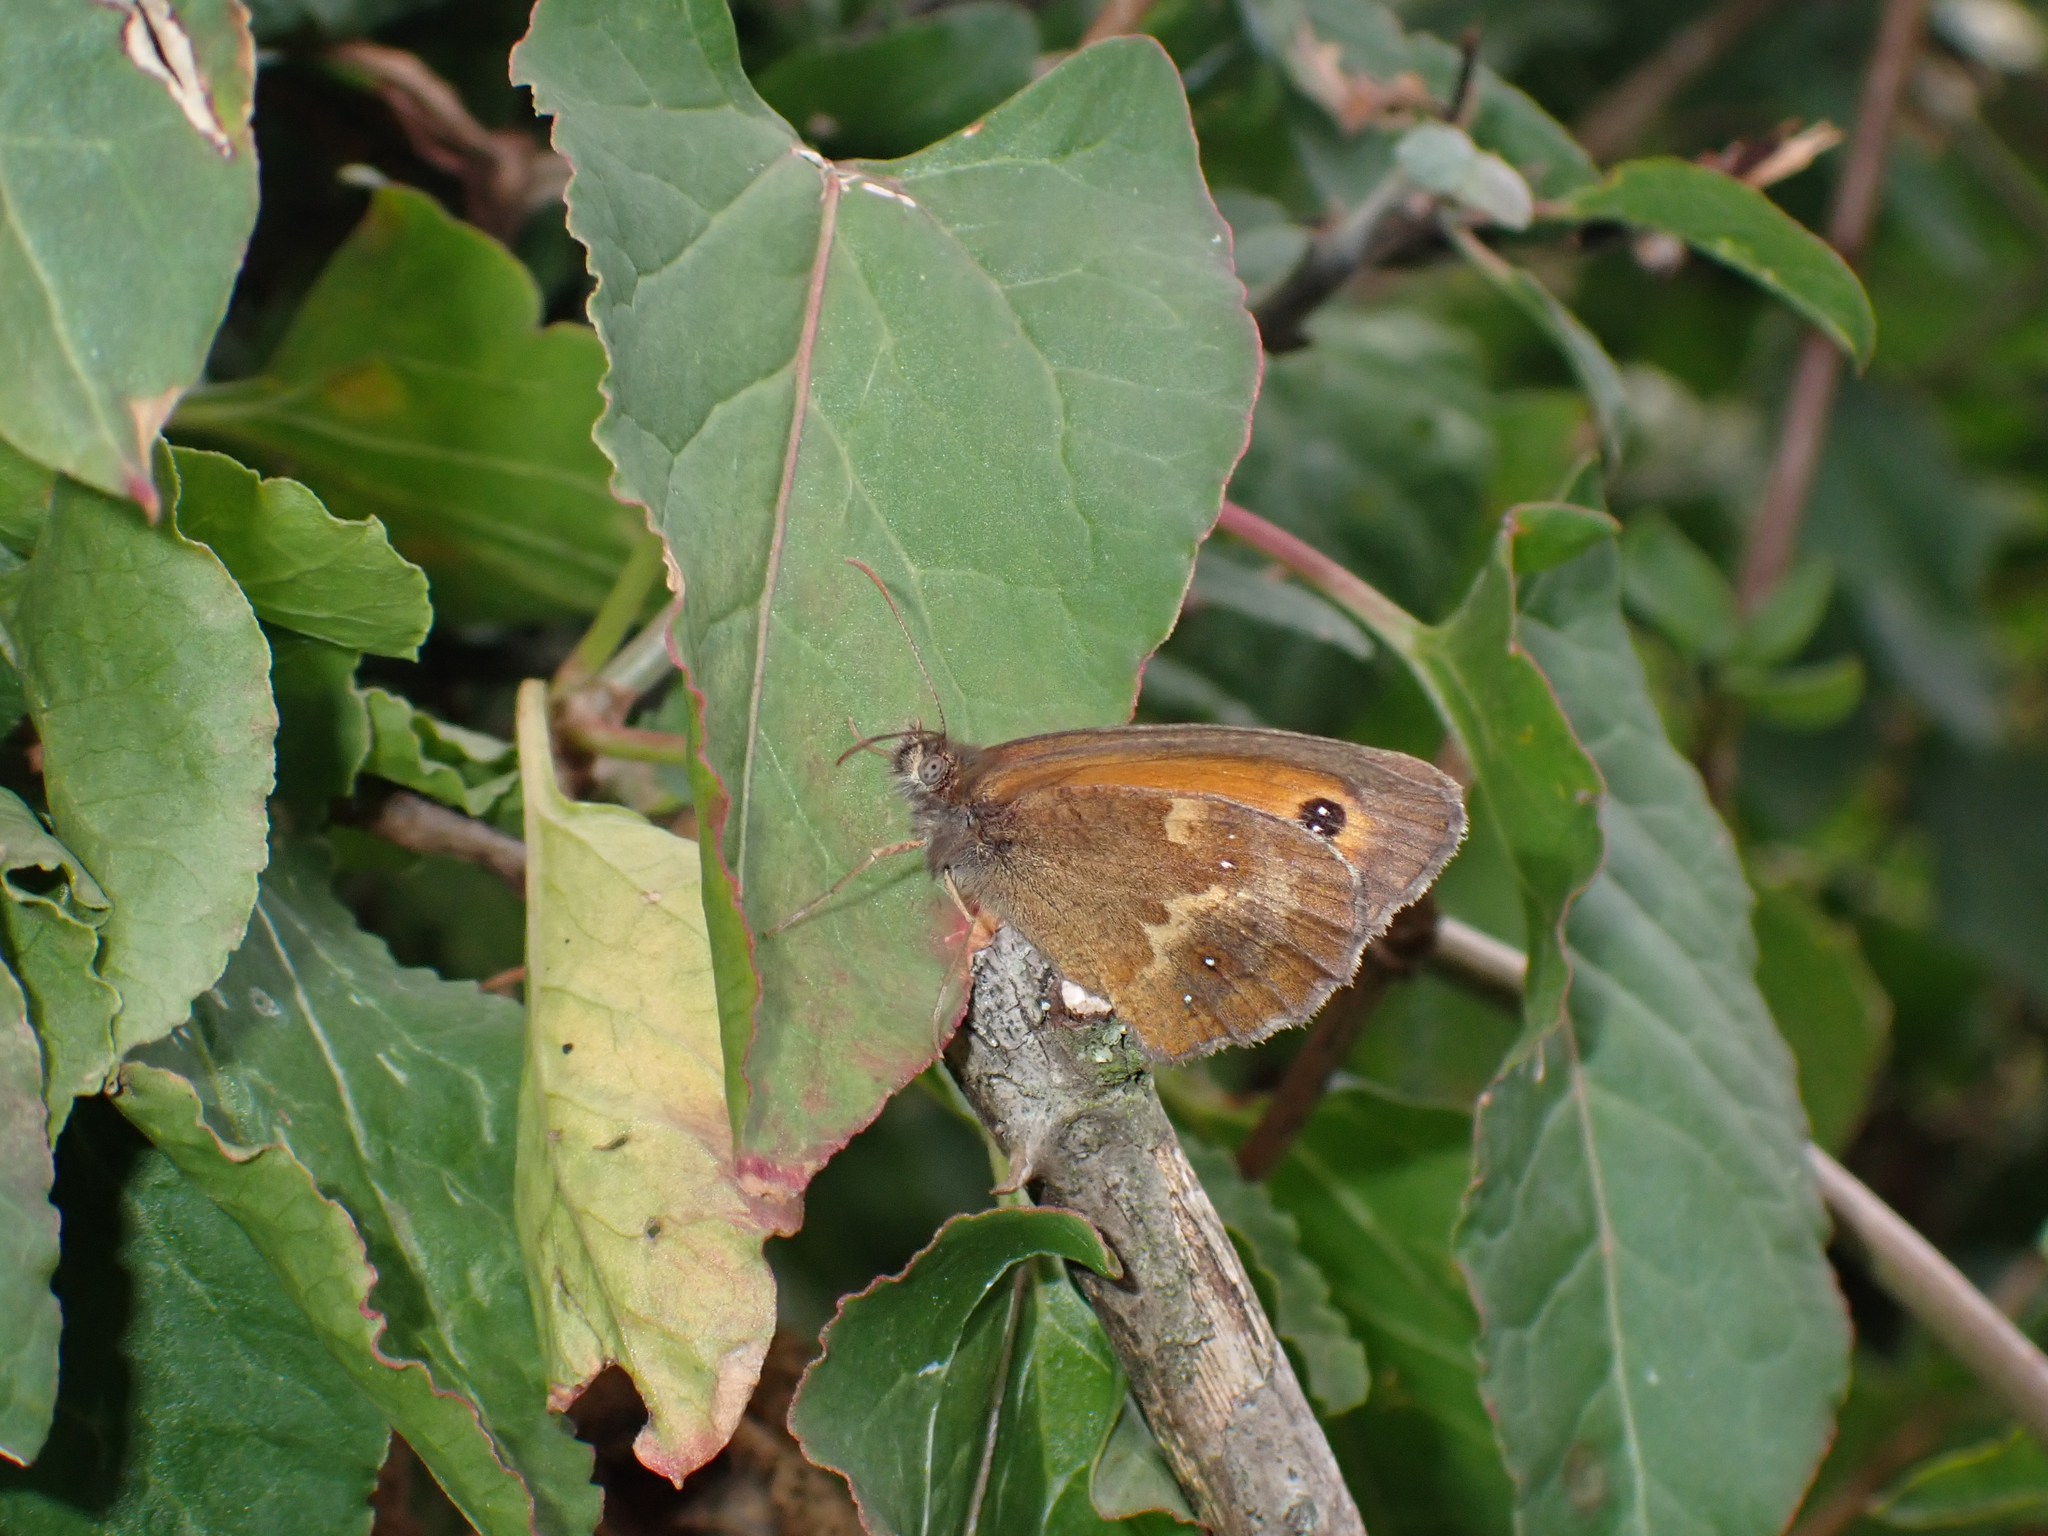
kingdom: Animalia
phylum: Arthropoda
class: Insecta
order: Lepidoptera
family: Nymphalidae
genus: Pyronia
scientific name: Pyronia tithonus
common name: Gatekeeper
